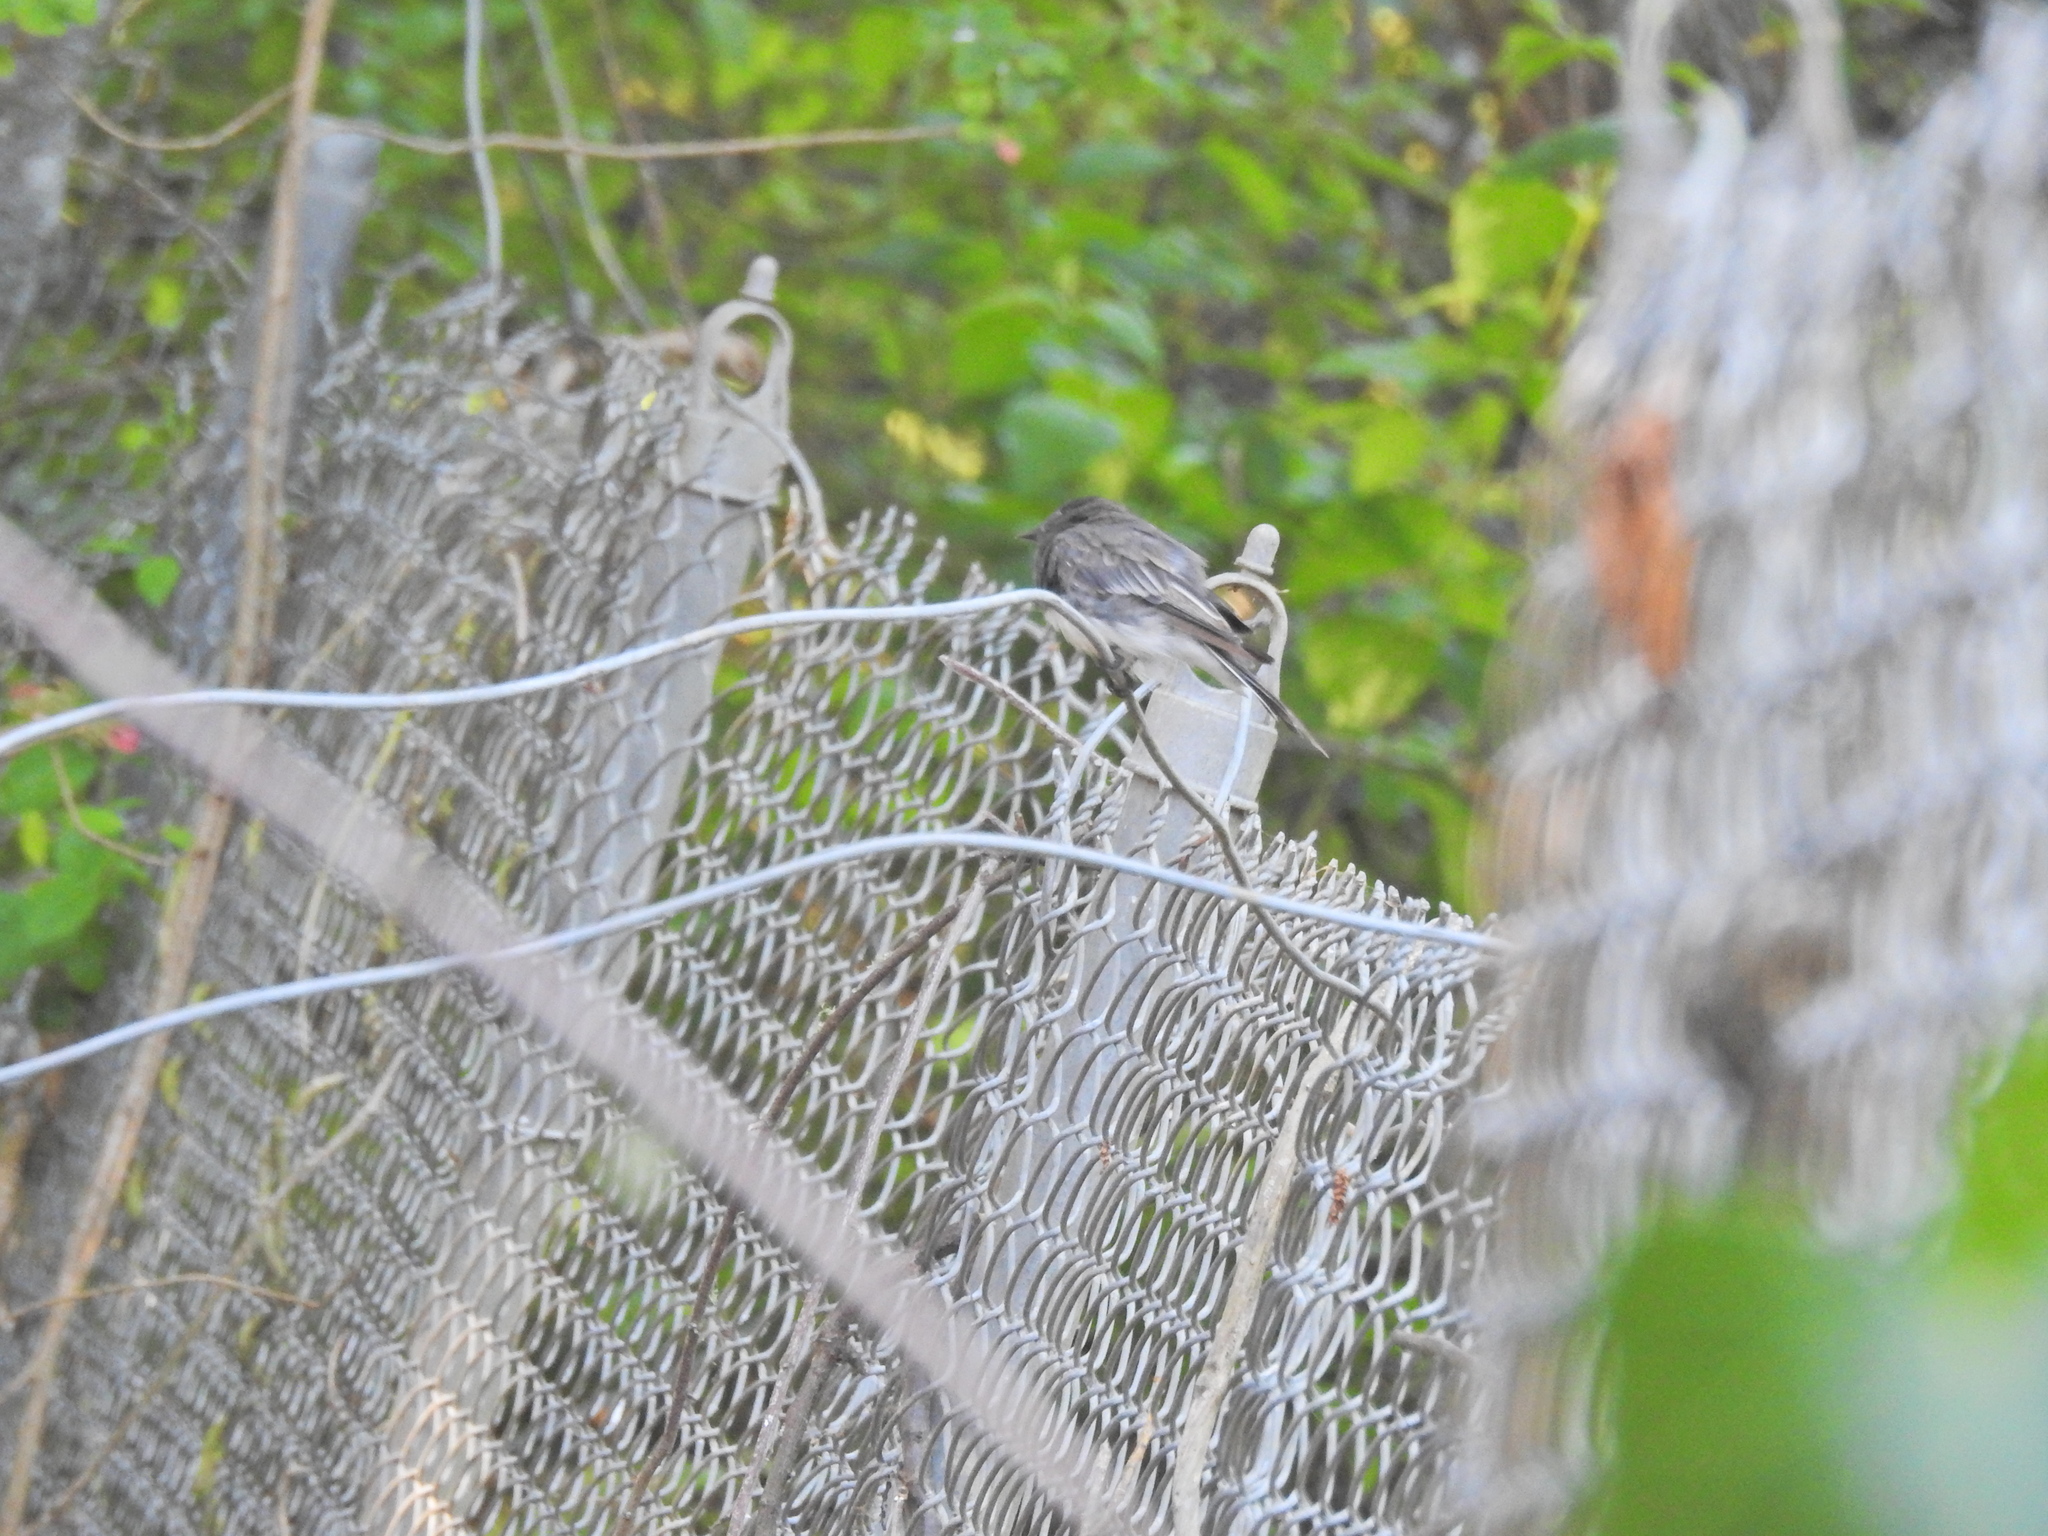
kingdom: Animalia
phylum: Chordata
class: Aves
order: Passeriformes
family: Tyrannidae
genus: Sayornis
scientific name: Sayornis nigricans
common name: Black phoebe
